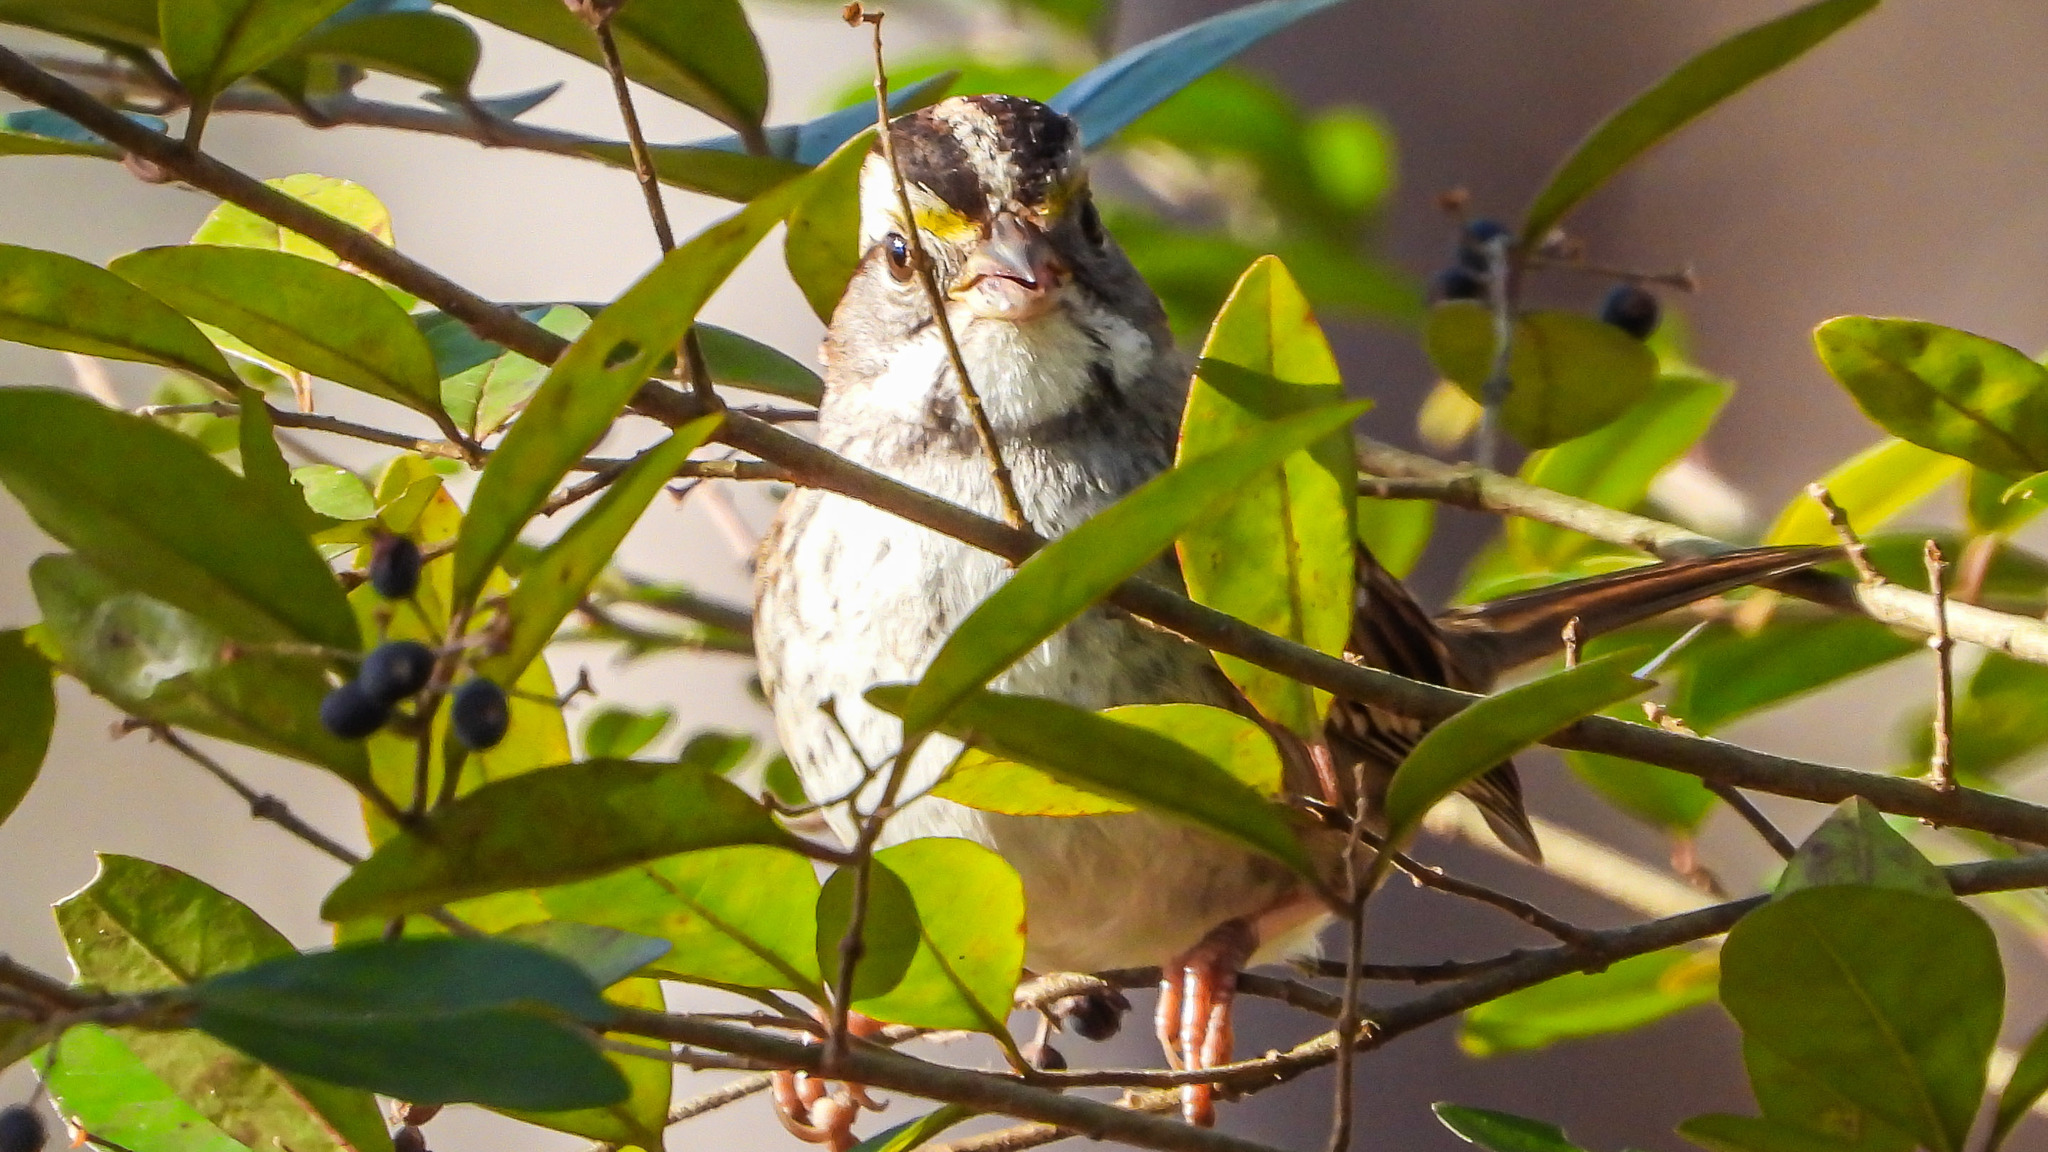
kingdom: Animalia
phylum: Chordata
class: Aves
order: Passeriformes
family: Passerellidae
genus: Zonotrichia
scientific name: Zonotrichia albicollis
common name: White-throated sparrow
